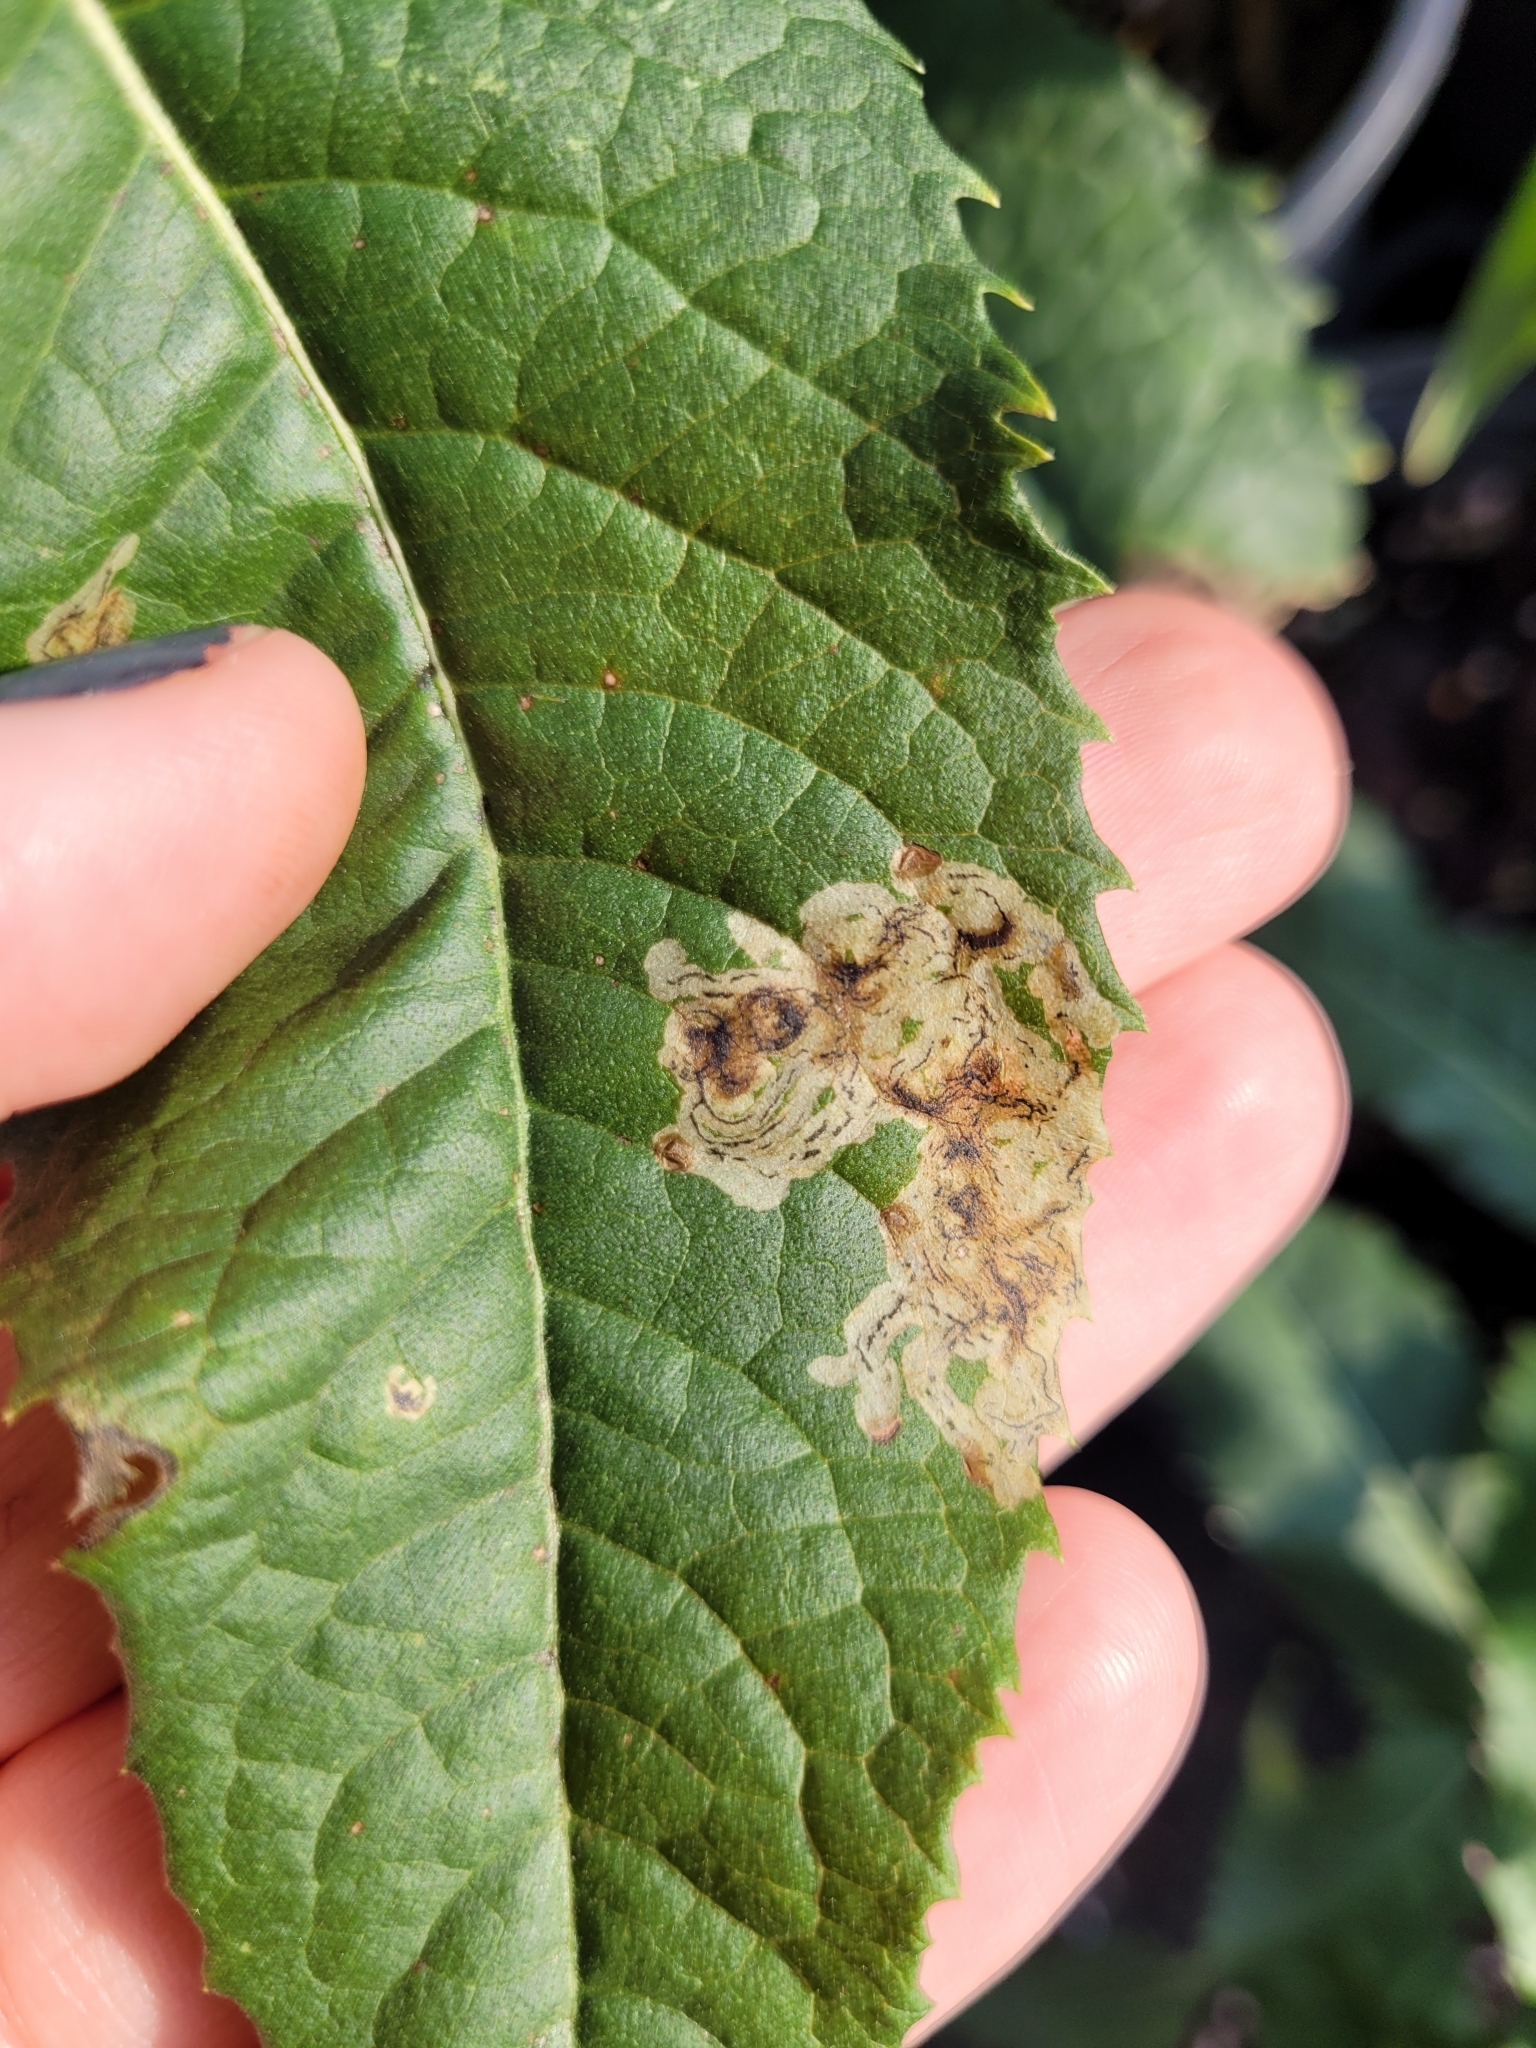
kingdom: Animalia
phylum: Arthropoda
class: Insecta
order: Diptera
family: Agromyzidae
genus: Liriomyza
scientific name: Liriomyza eupatoriella
